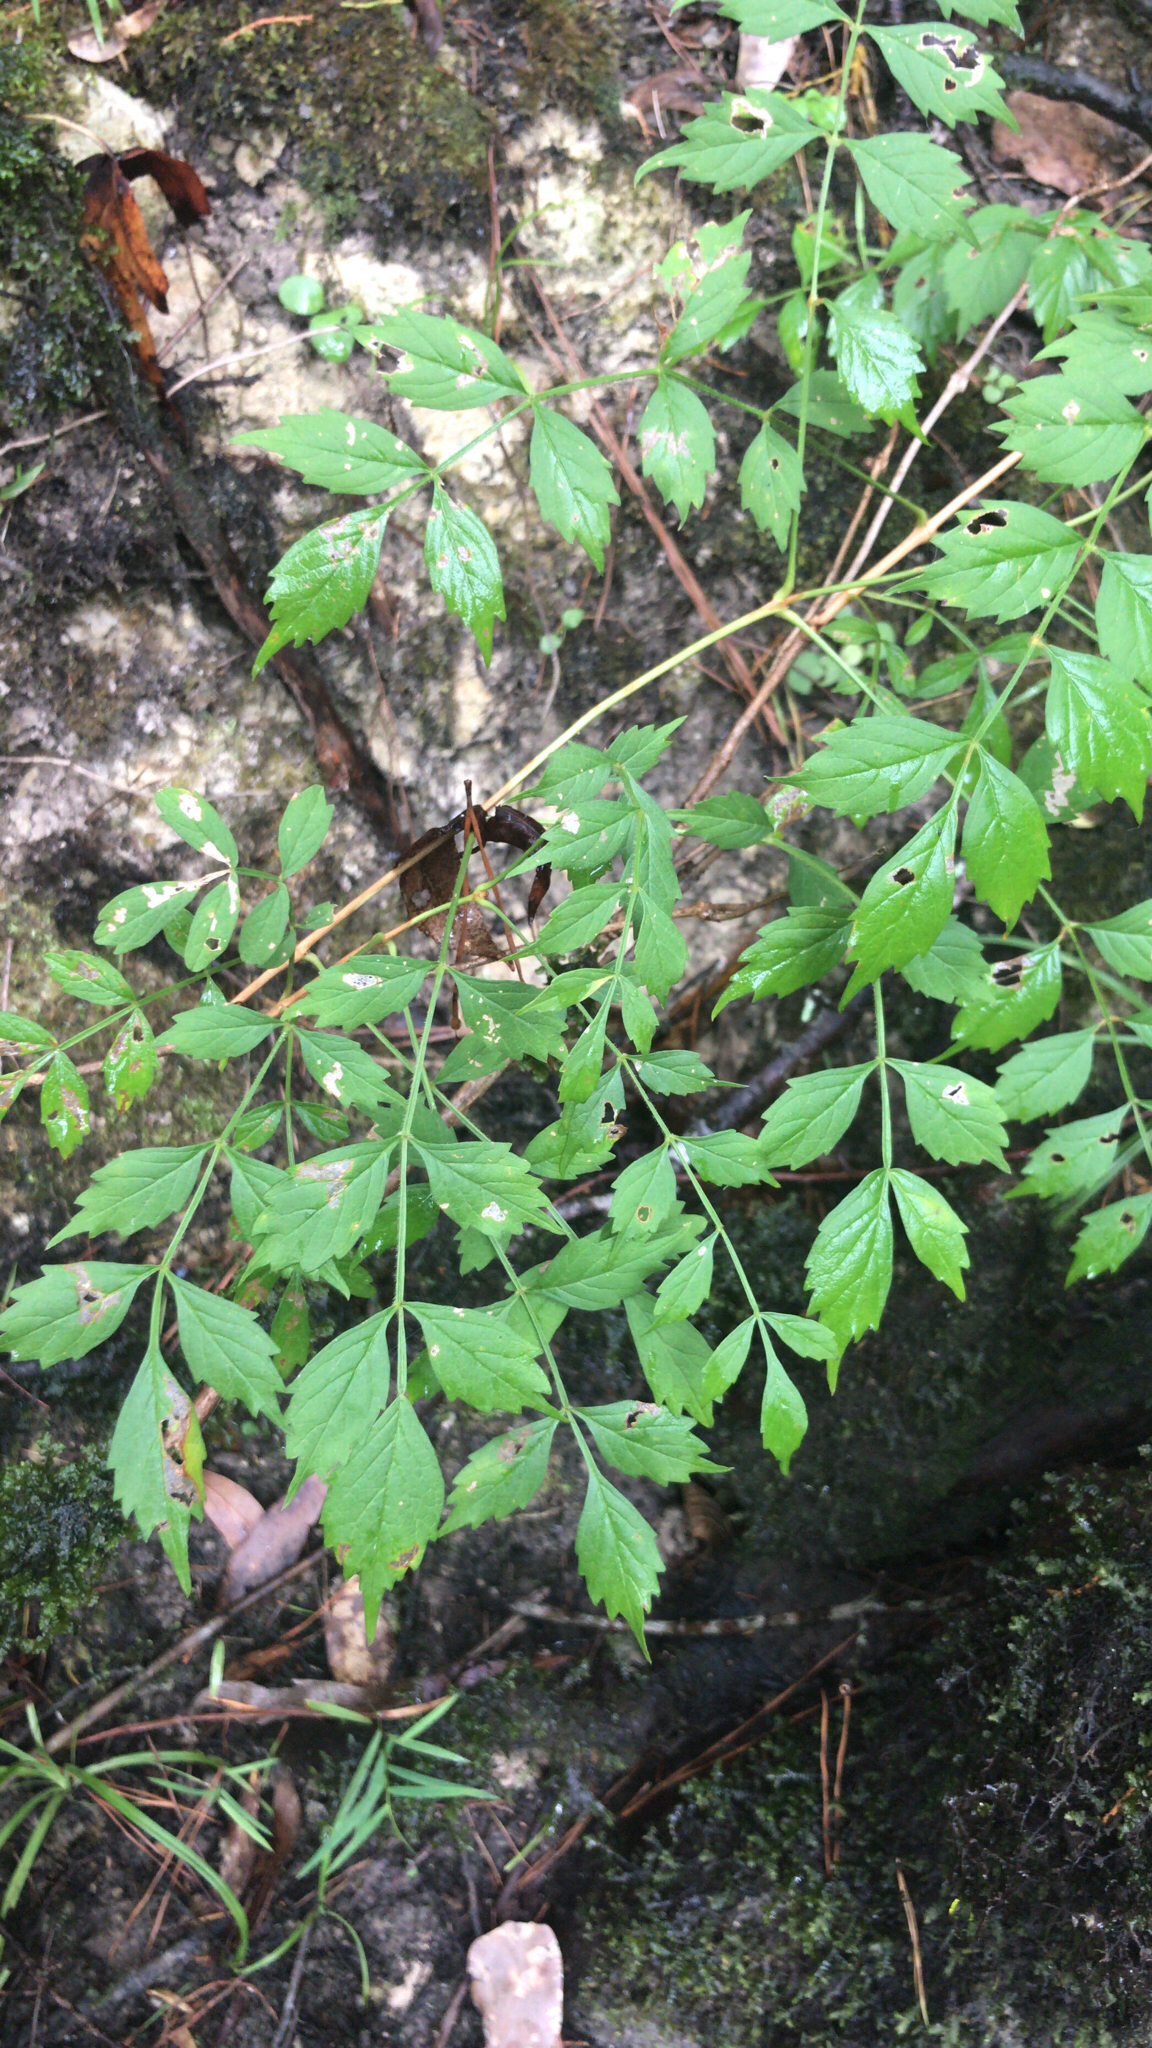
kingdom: Plantae
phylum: Tracheophyta
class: Magnoliopsida
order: Lamiales
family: Bignoniaceae
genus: Campsis
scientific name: Campsis radicans
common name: Trumpet-creeper
